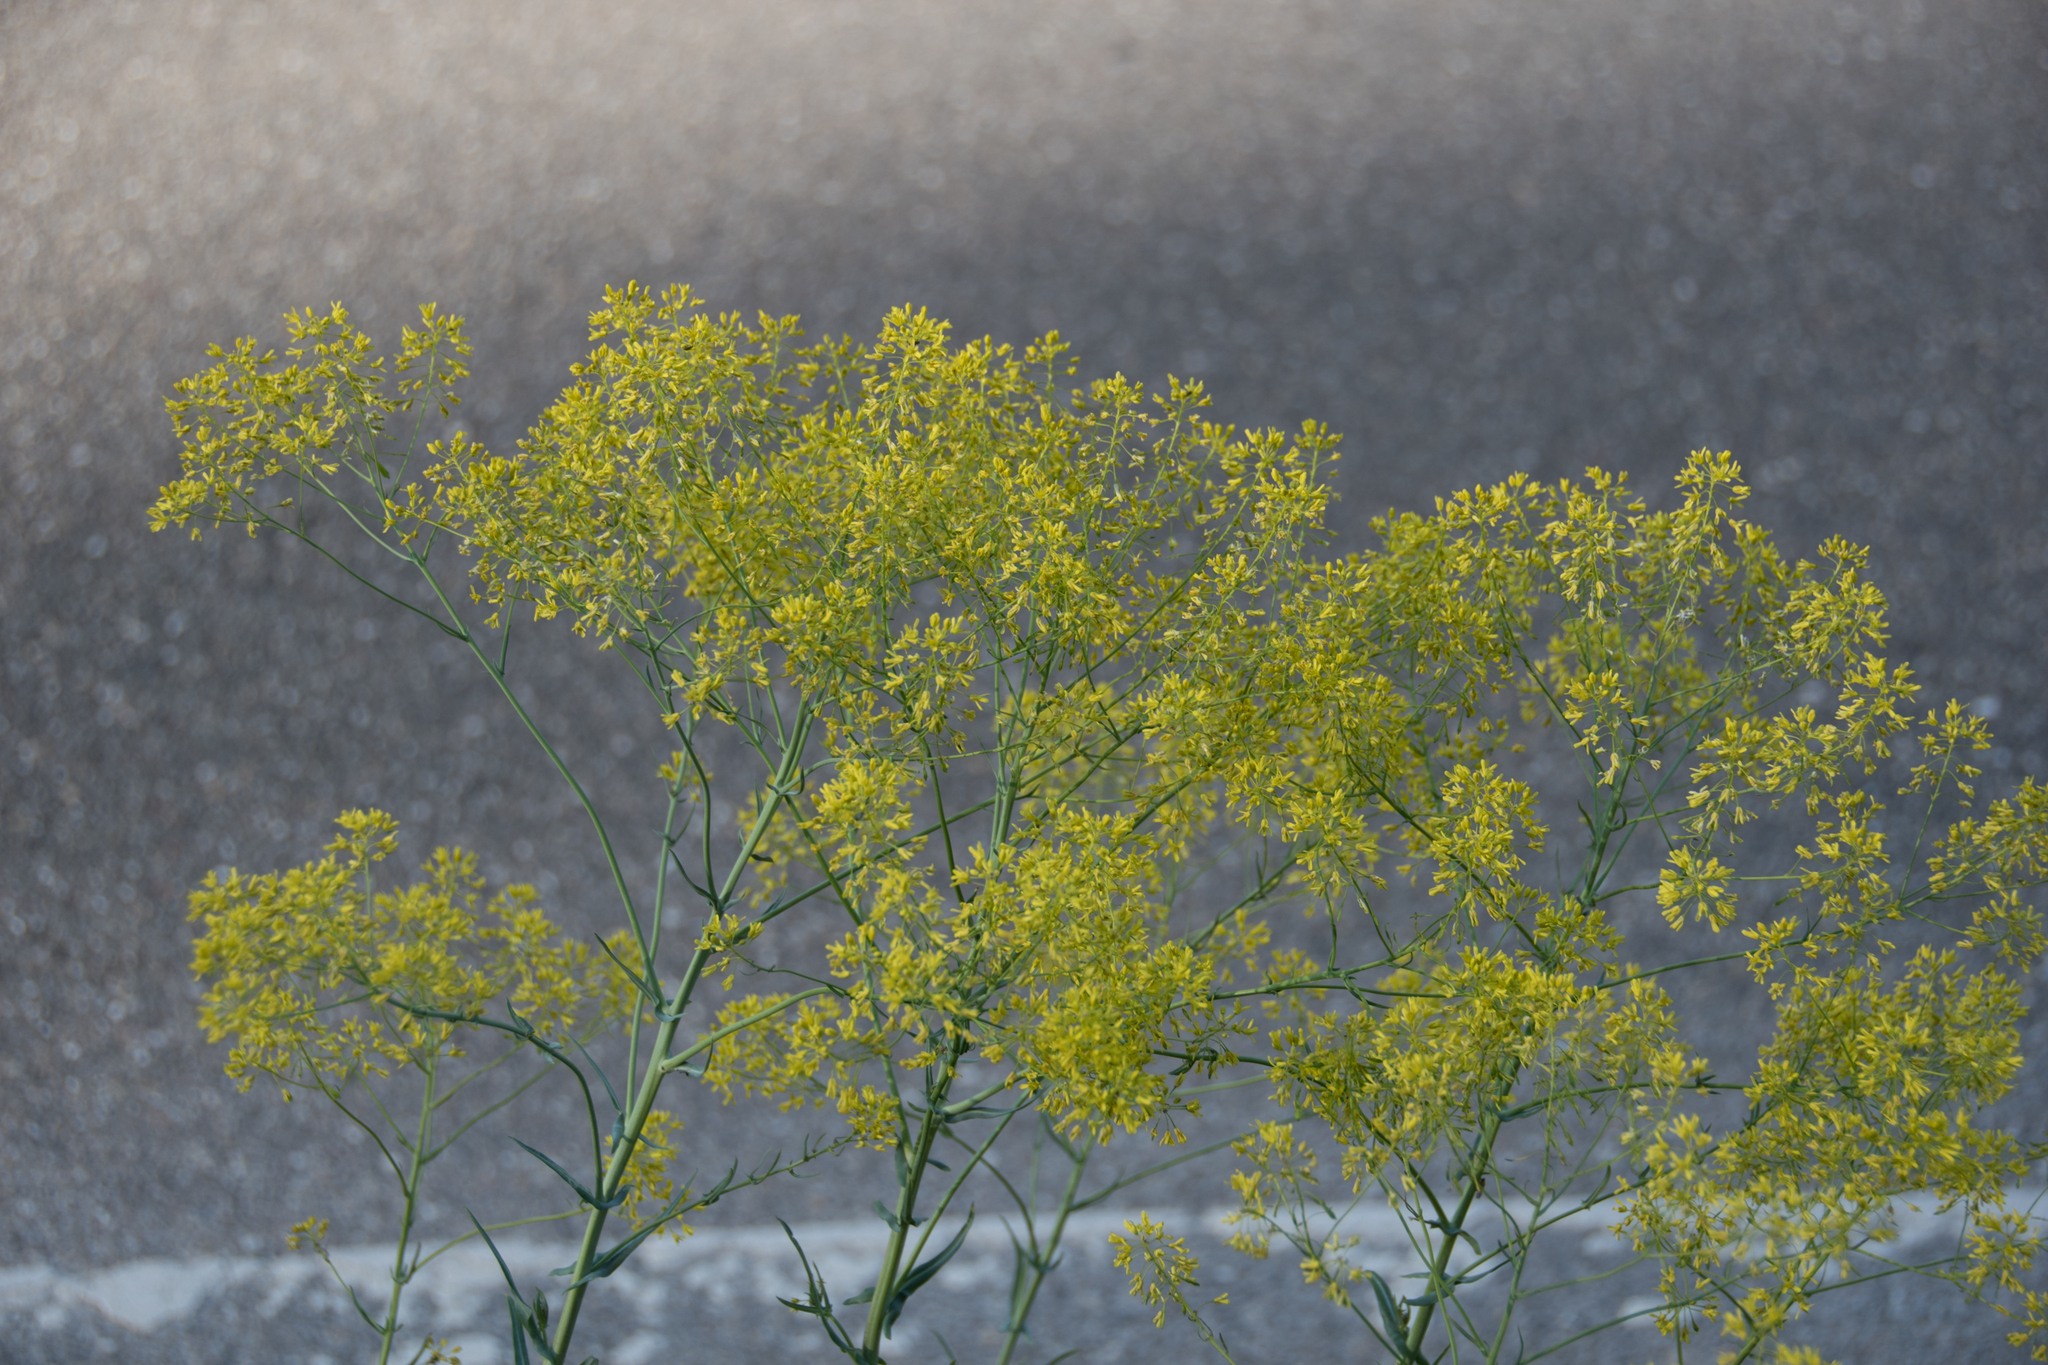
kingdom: Plantae
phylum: Tracheophyta
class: Magnoliopsida
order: Brassicales
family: Brassicaceae
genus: Isatis
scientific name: Isatis tinctoria
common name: Woad
